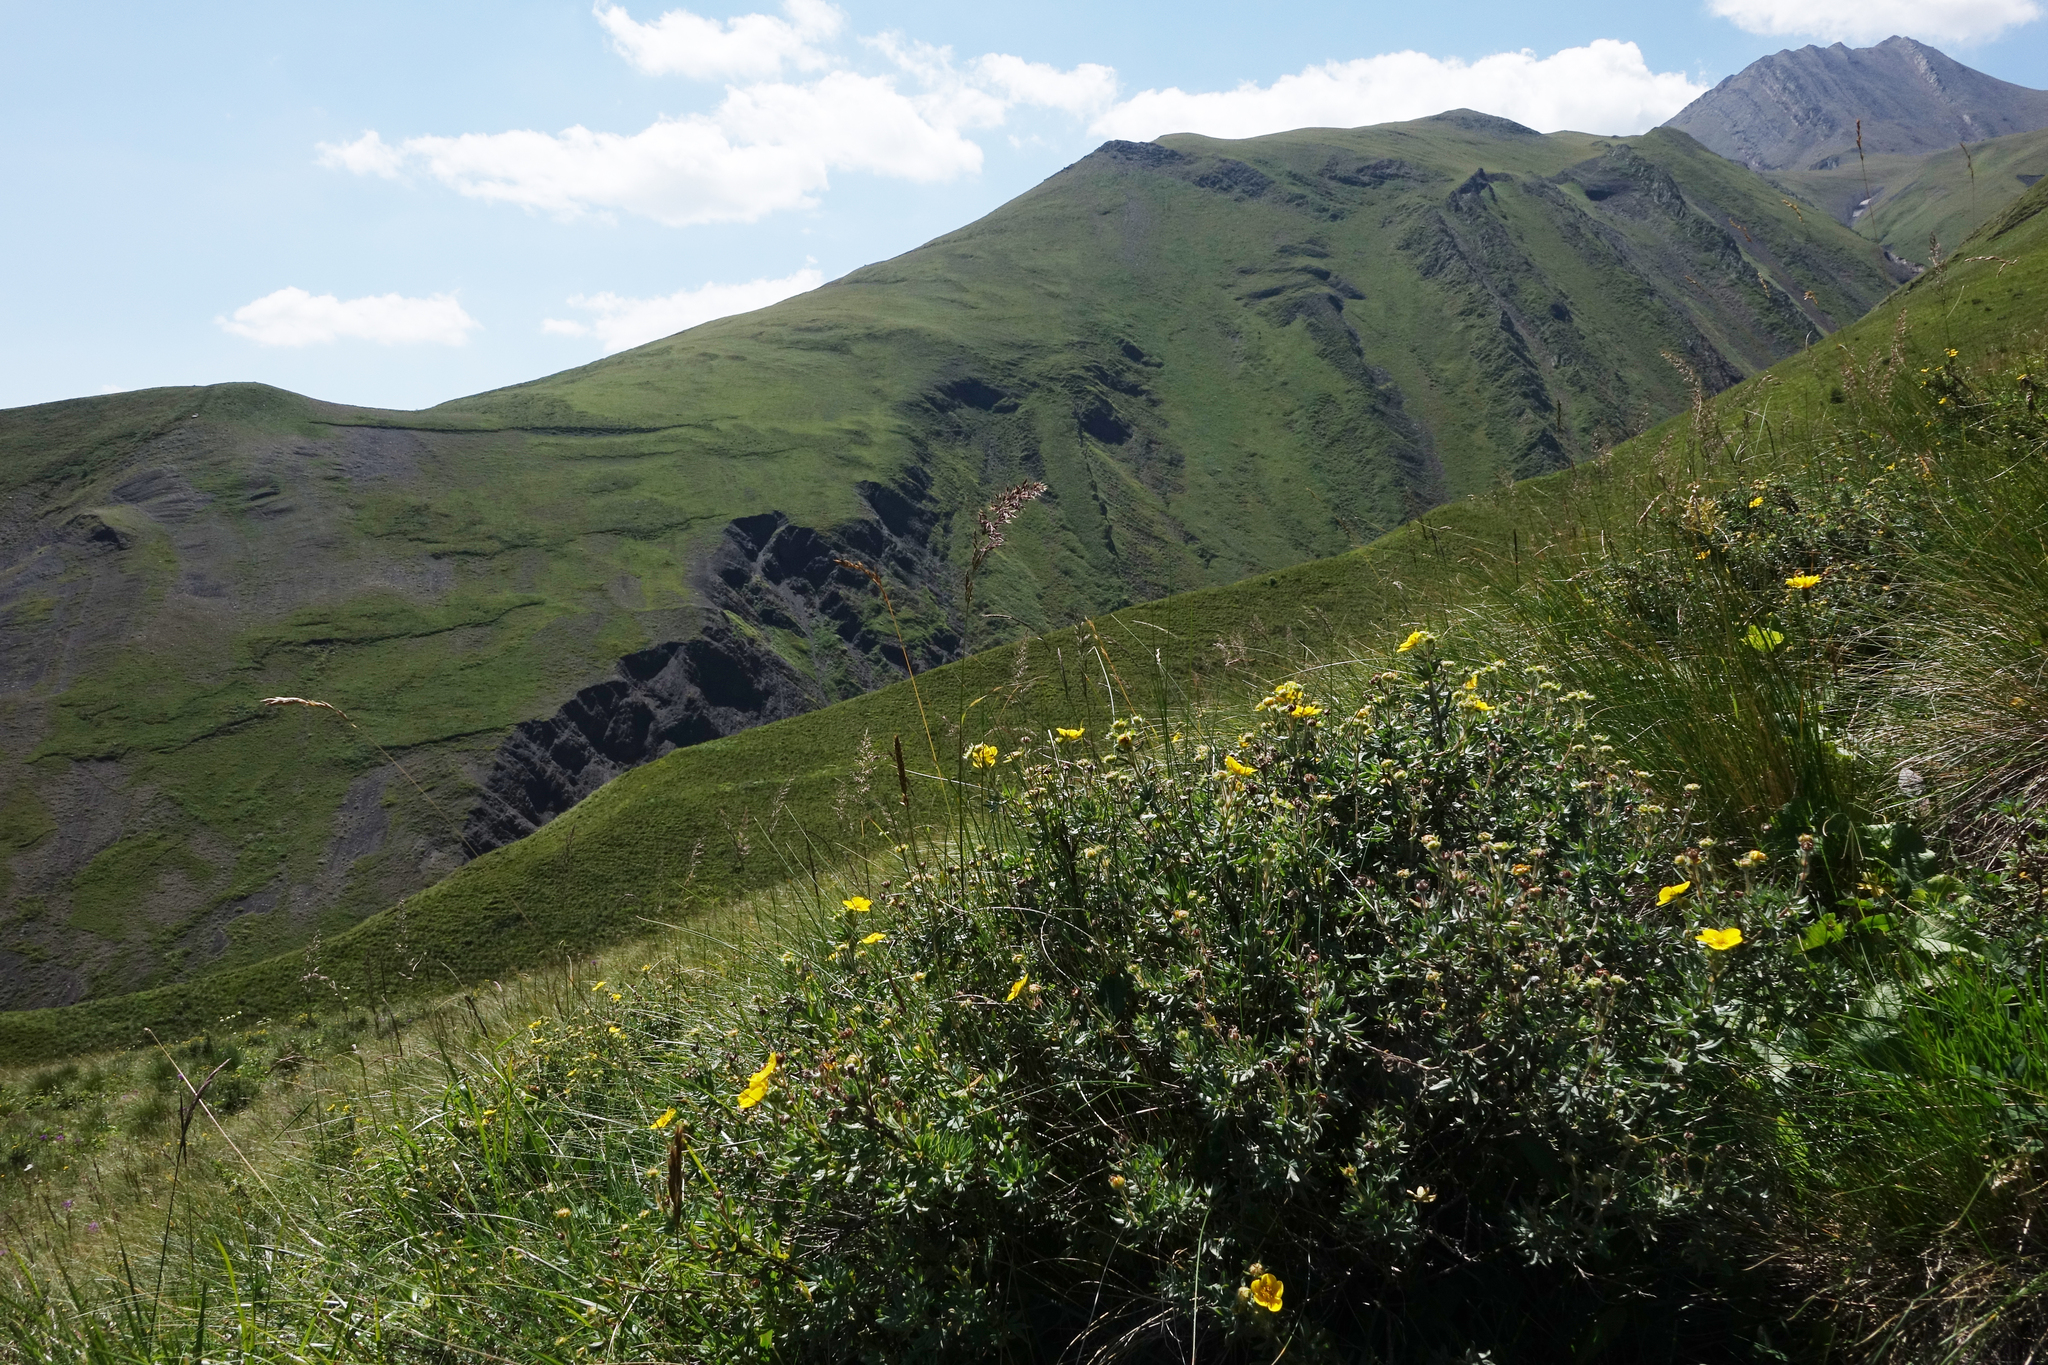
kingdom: Plantae
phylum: Tracheophyta
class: Magnoliopsida
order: Rosales
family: Rosaceae
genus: Dasiphora
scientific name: Dasiphora fruticosa
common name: Shrubby cinquefoil
